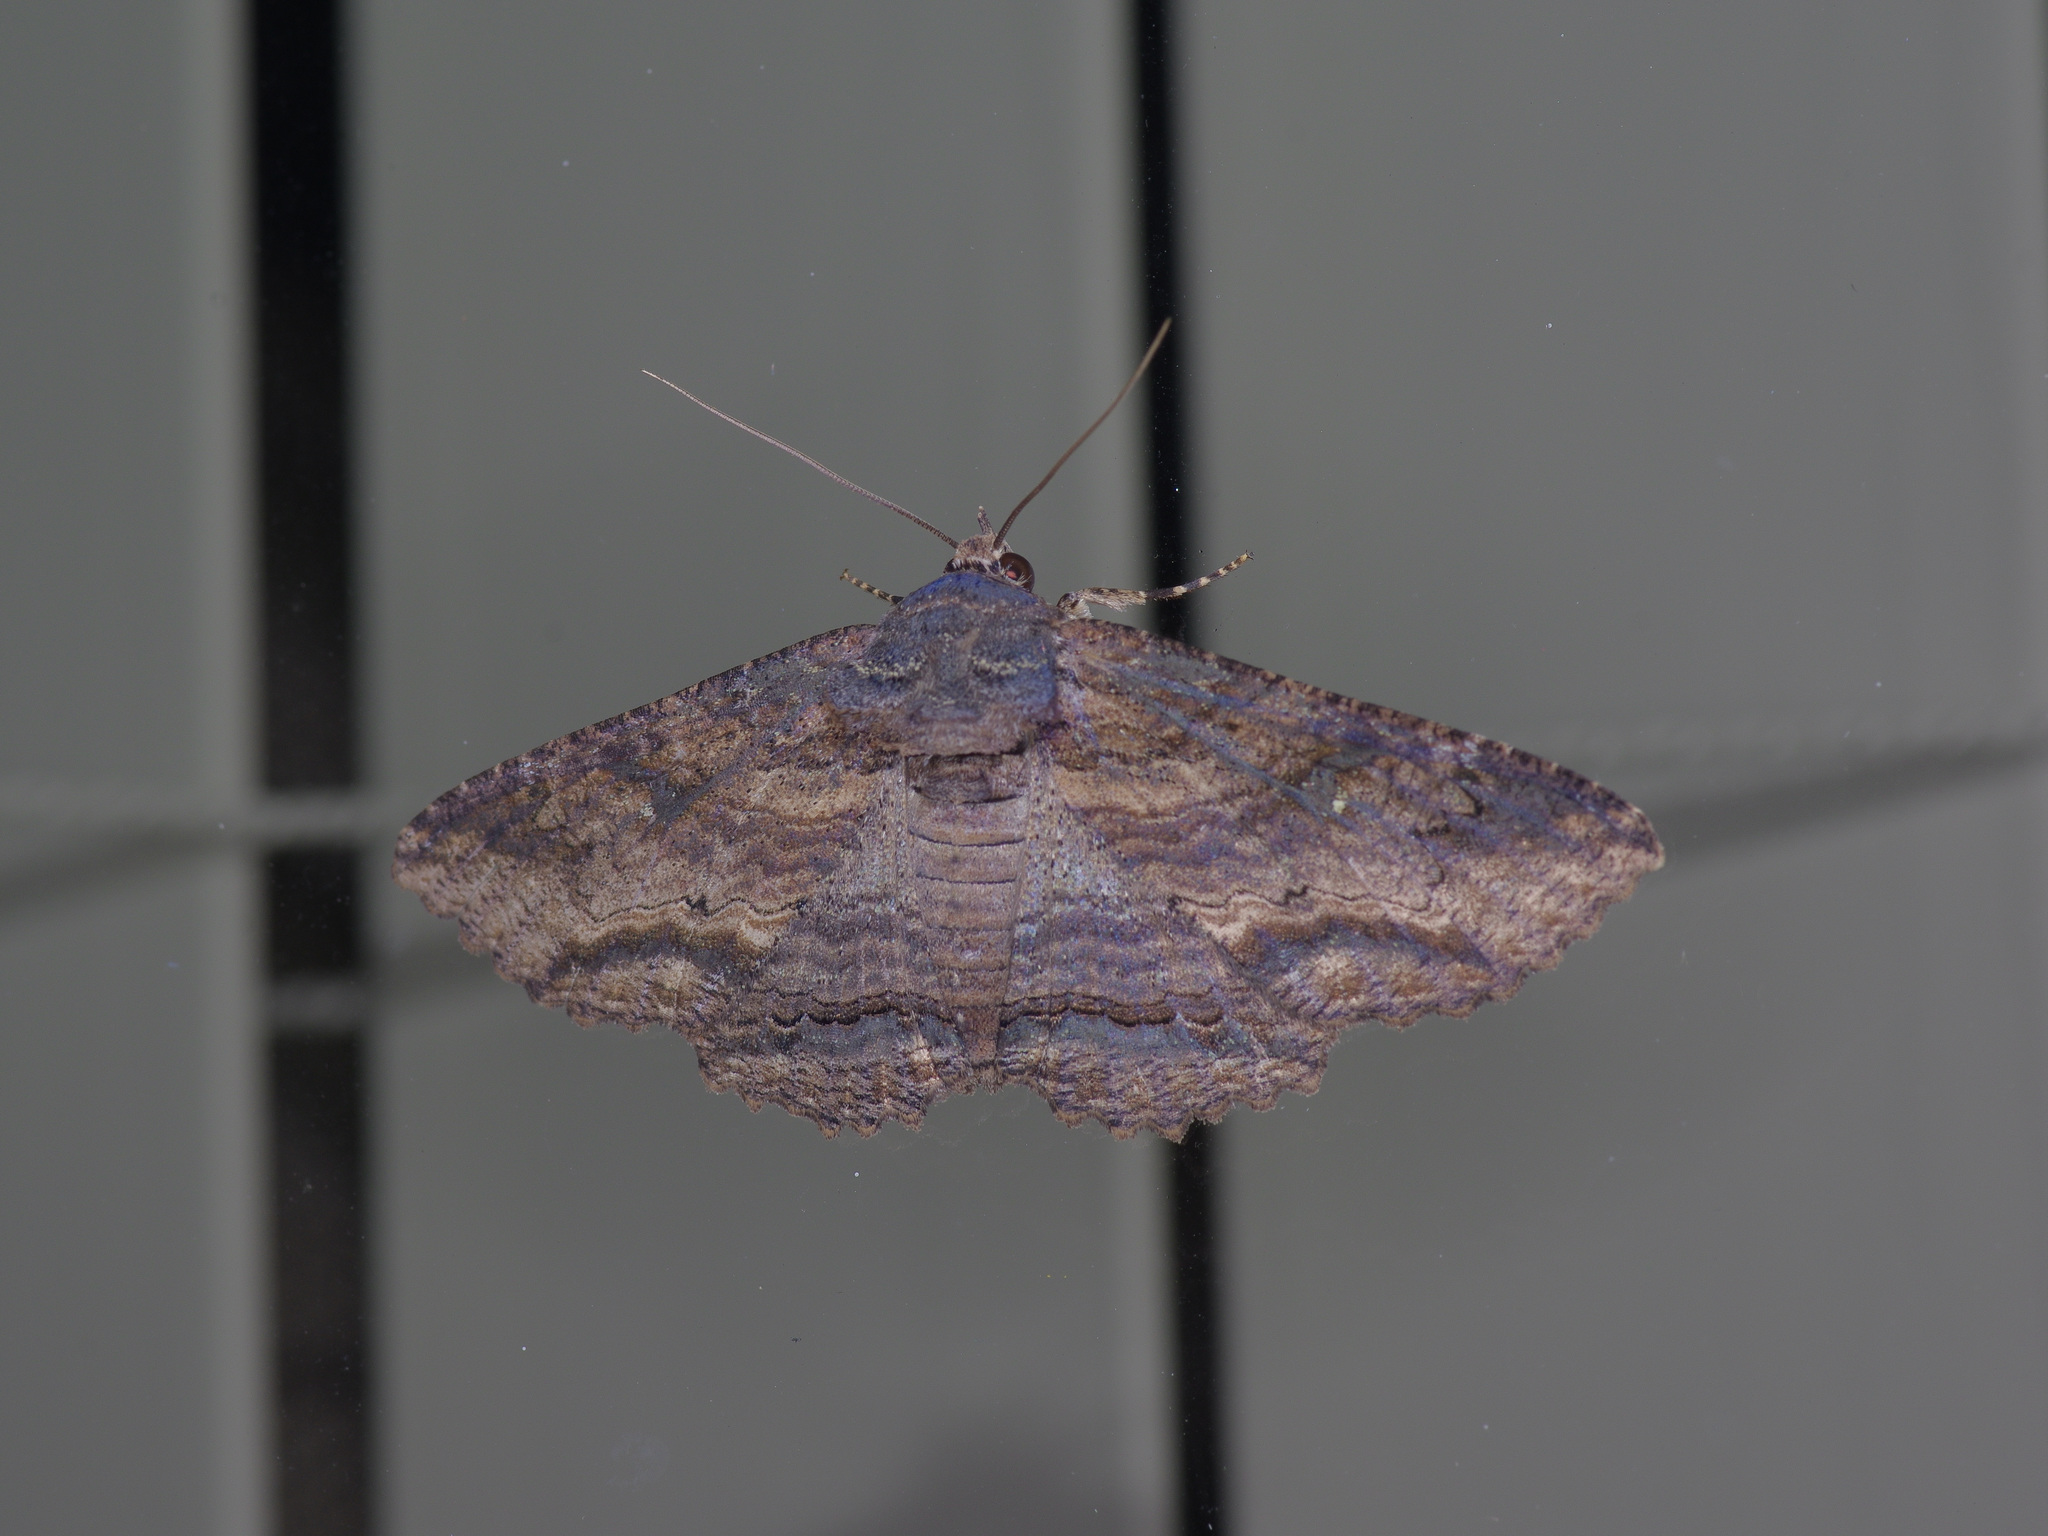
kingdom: Animalia
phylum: Arthropoda
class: Insecta
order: Lepidoptera
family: Erebidae
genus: Zale
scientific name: Zale lunata
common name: Lunate zale moth
